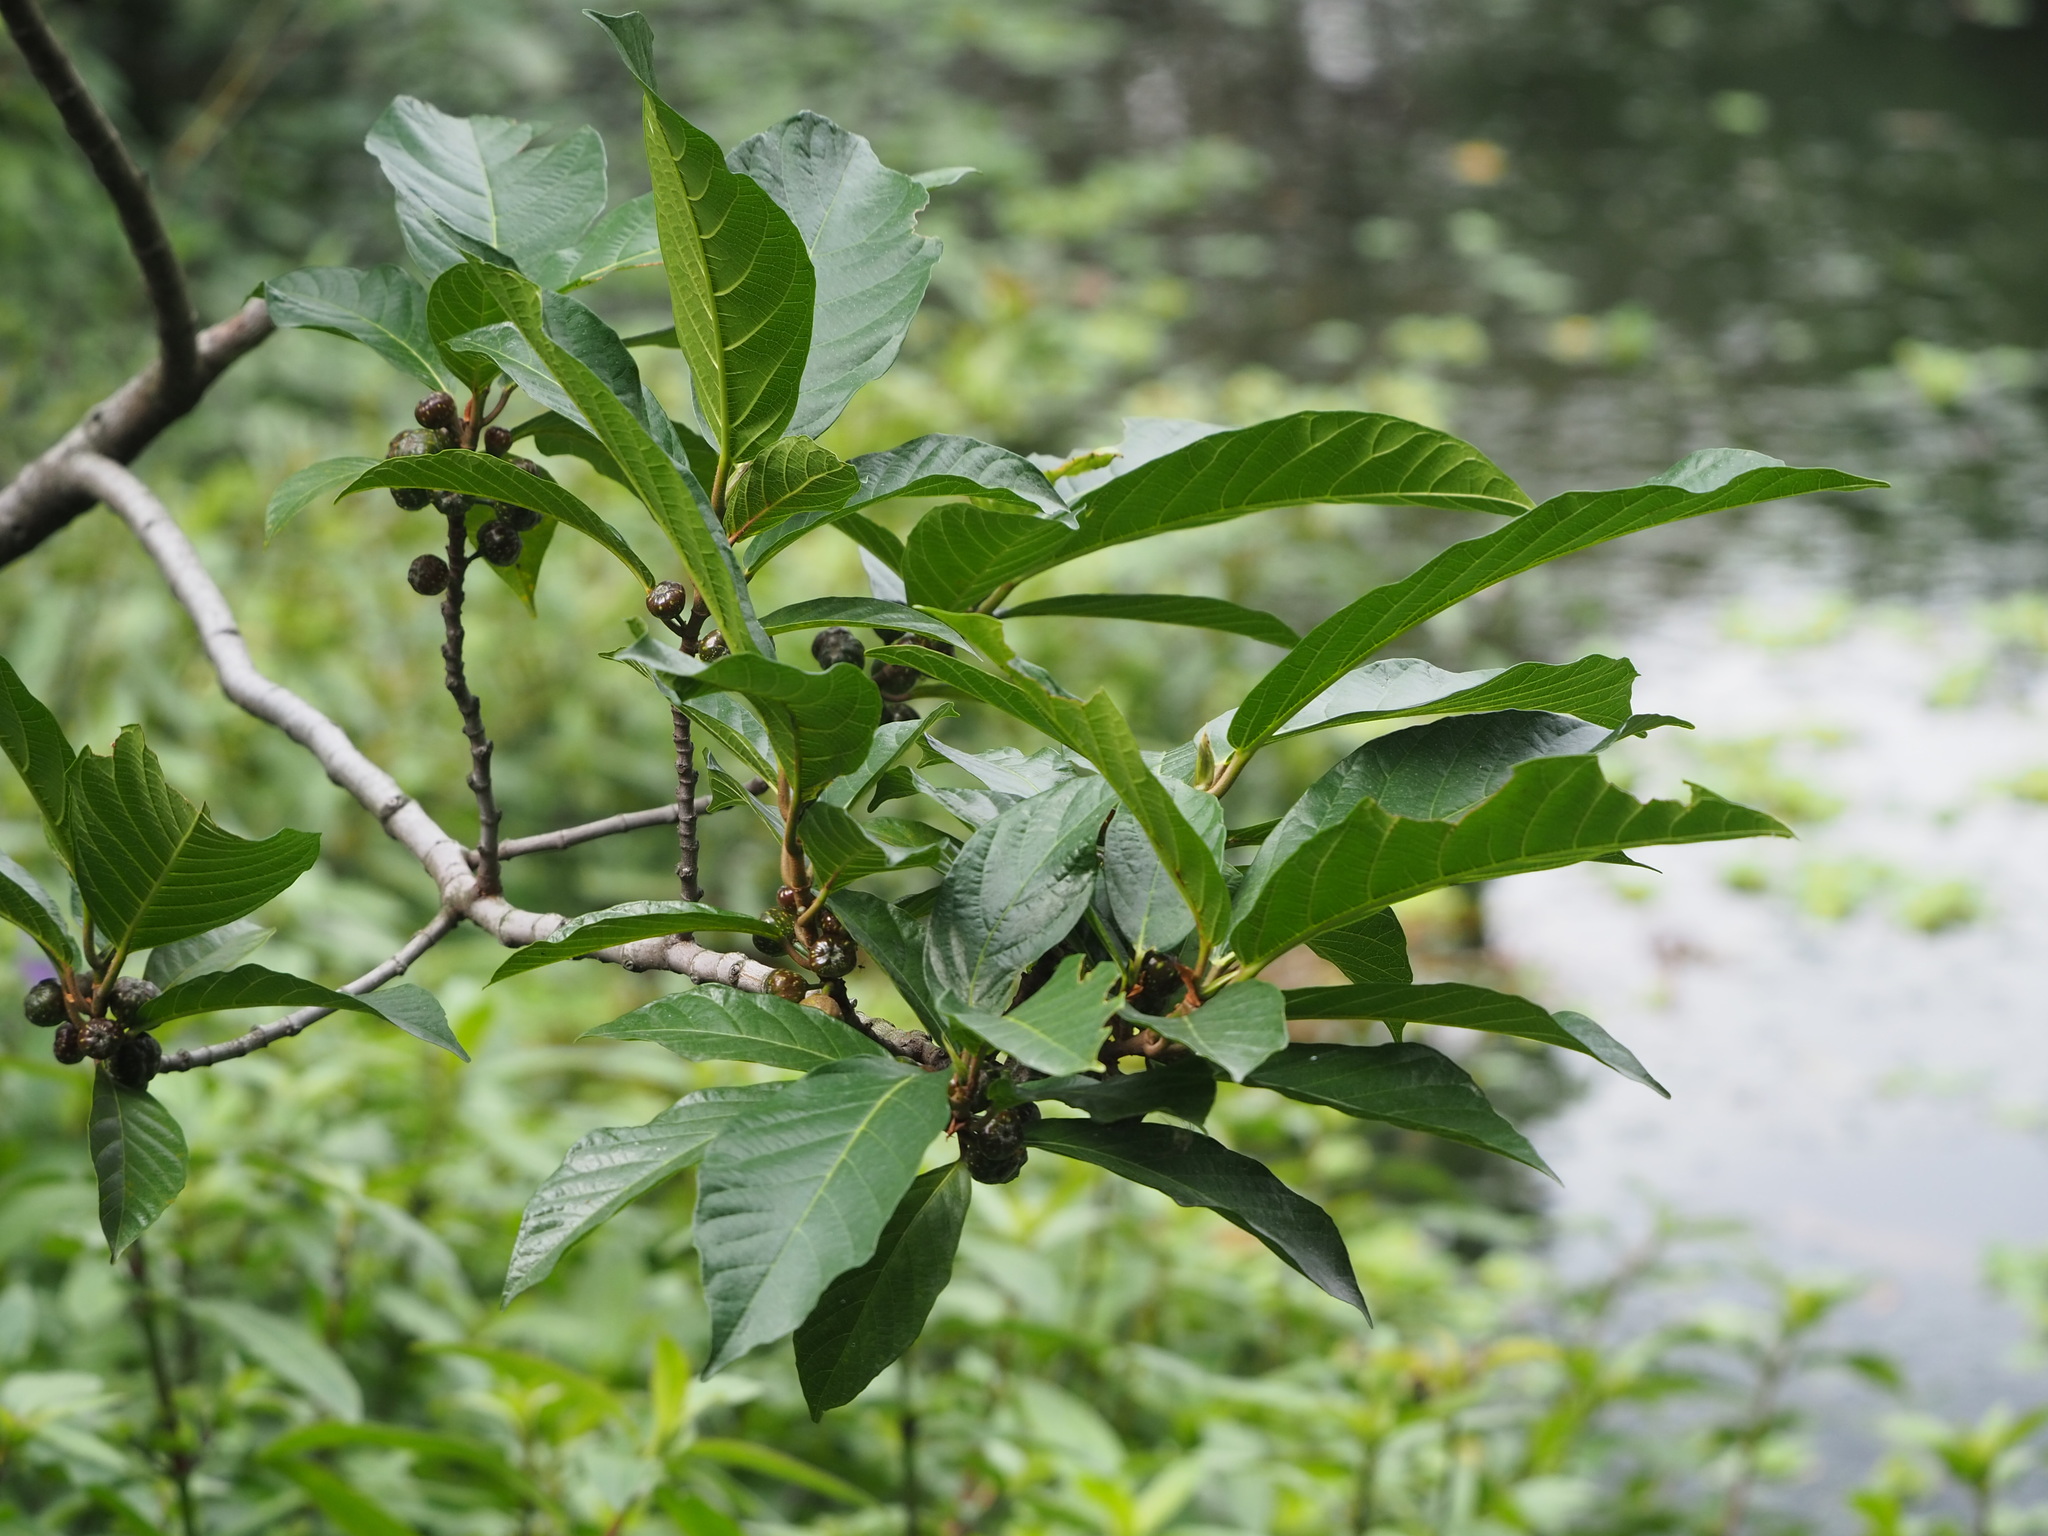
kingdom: Plantae
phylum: Tracheophyta
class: Magnoliopsida
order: Rosales
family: Moraceae
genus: Ficus
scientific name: Ficus benguetensis
